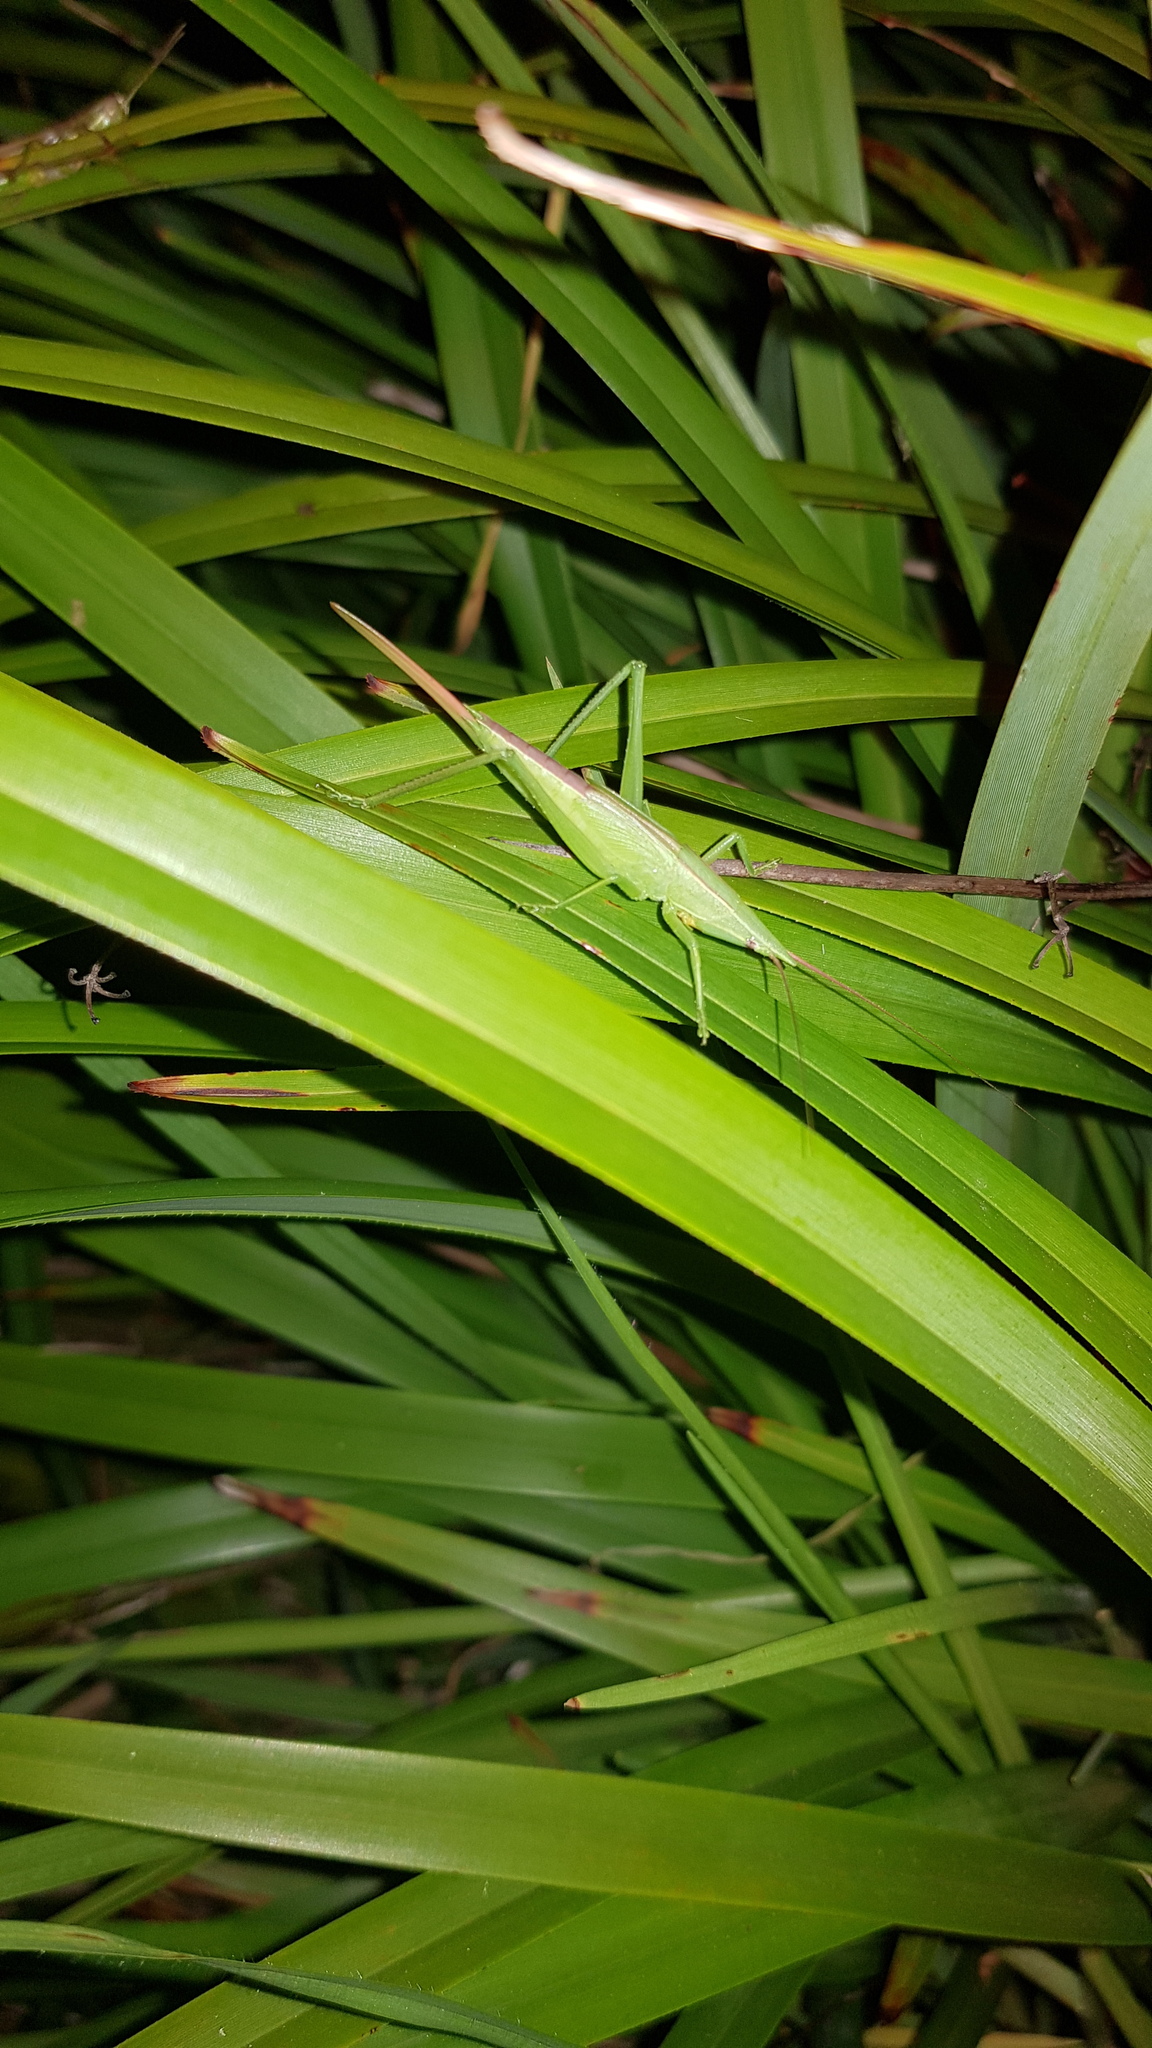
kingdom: Animalia
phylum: Arthropoda
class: Insecta
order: Orthoptera
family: Tettigoniidae
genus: Pseudorhynchus
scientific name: Pseudorhynchus lessonii
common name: Lesson's mimicking snout nose
